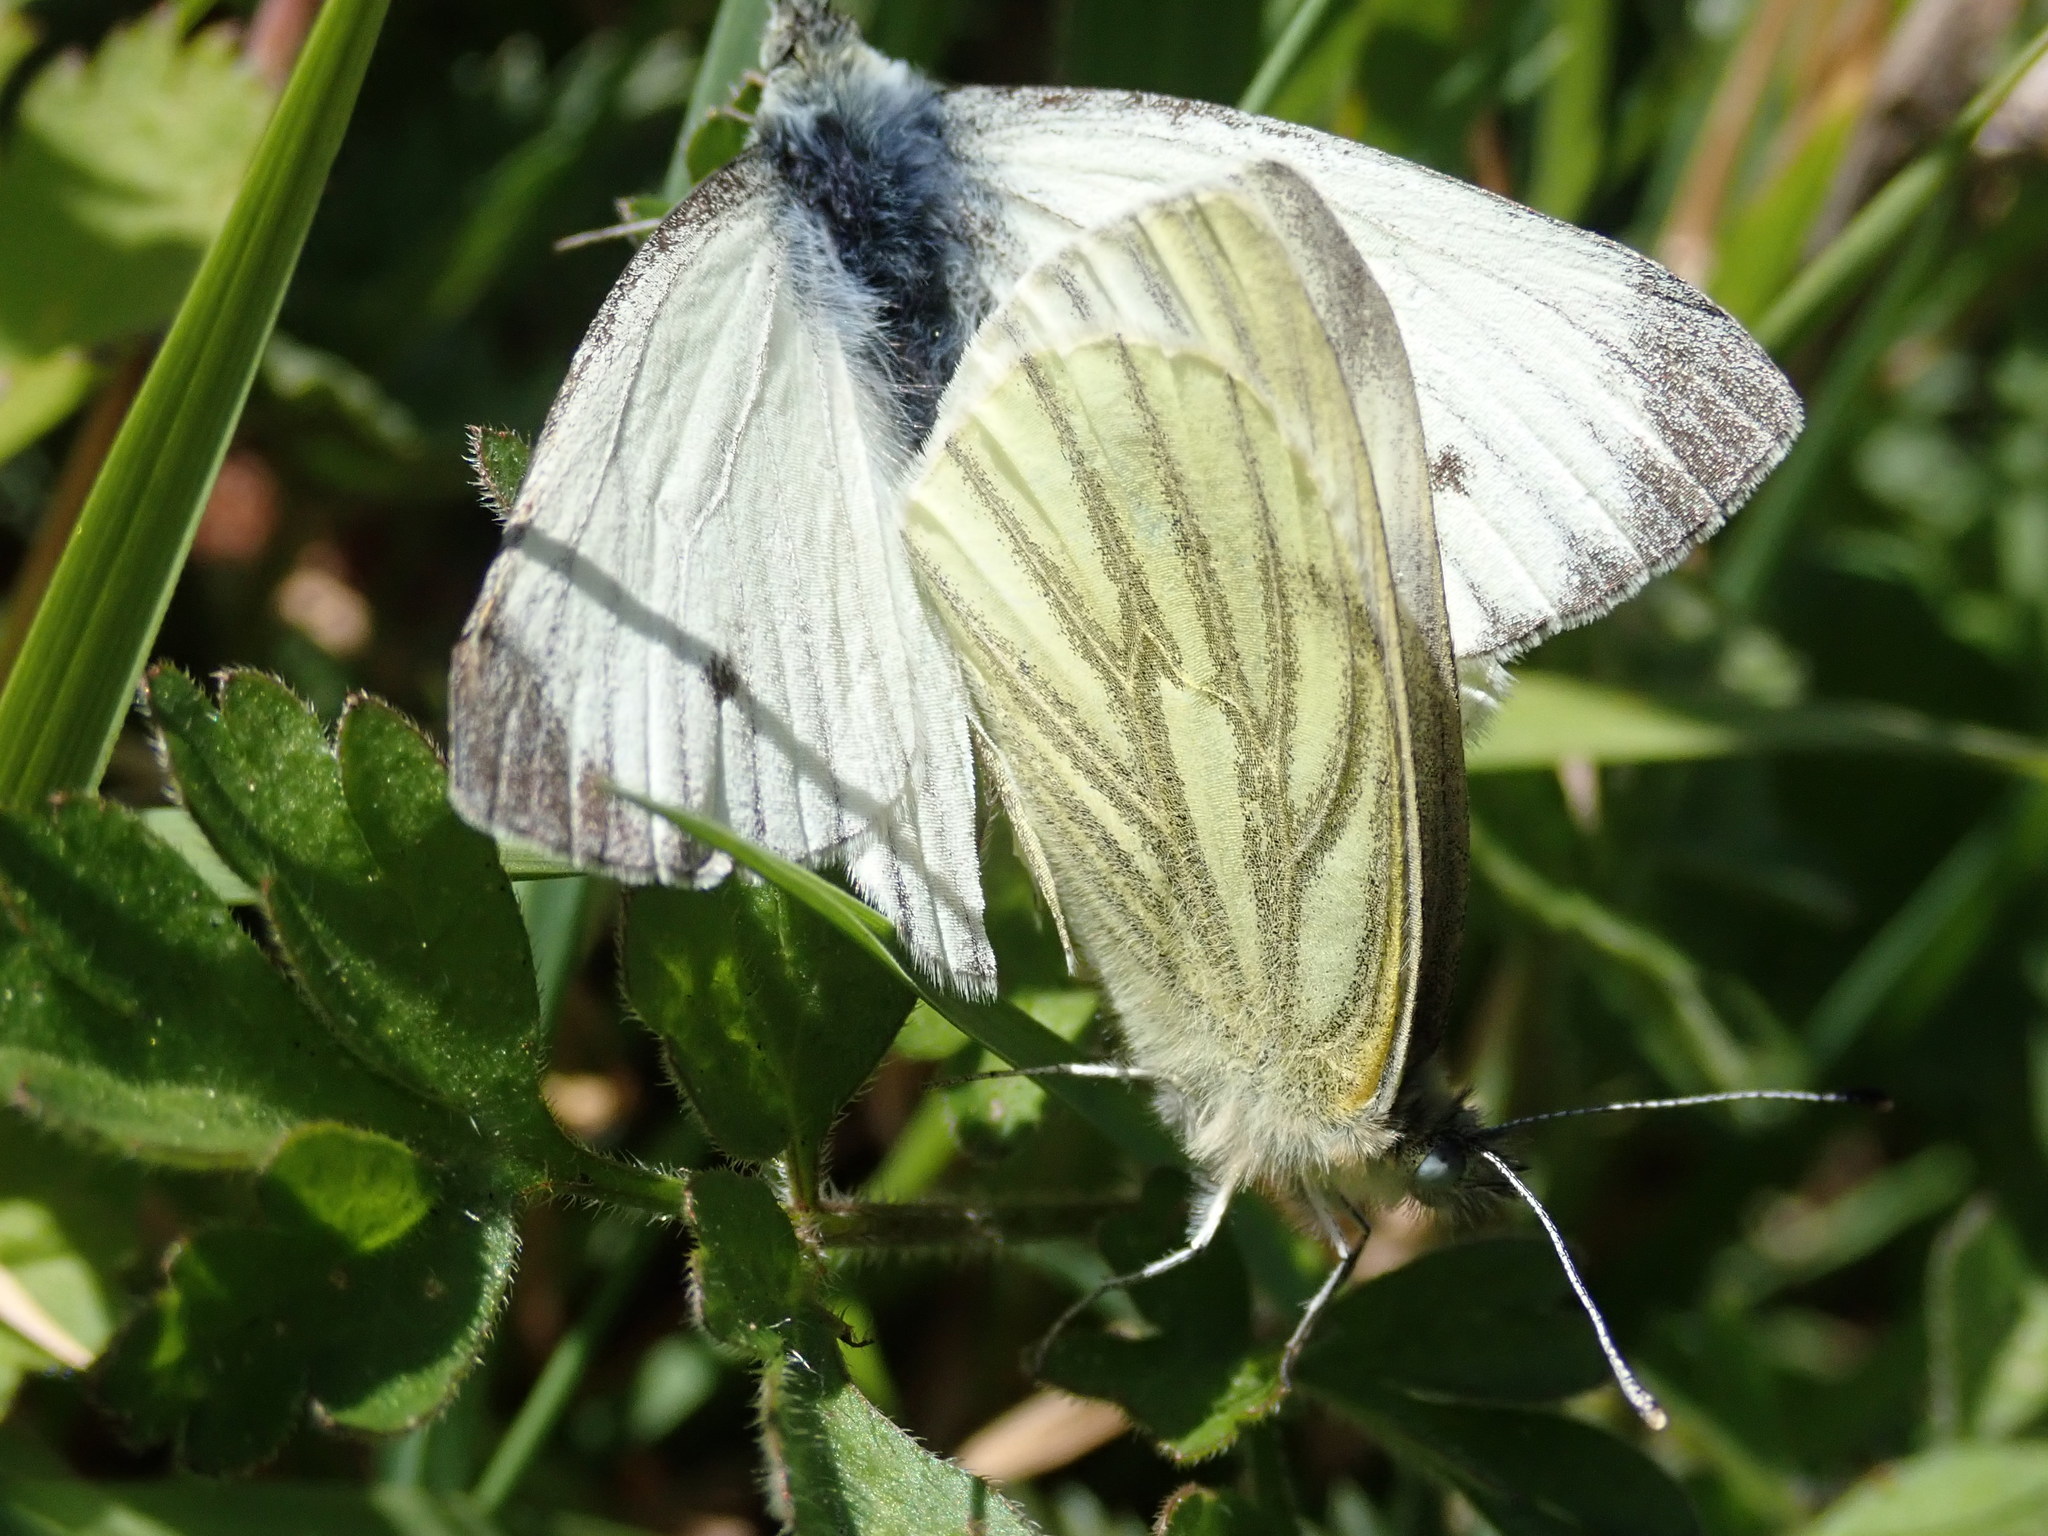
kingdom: Animalia
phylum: Arthropoda
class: Insecta
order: Lepidoptera
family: Pieridae
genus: Pieris
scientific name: Pieris napi
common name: Green-veined white
